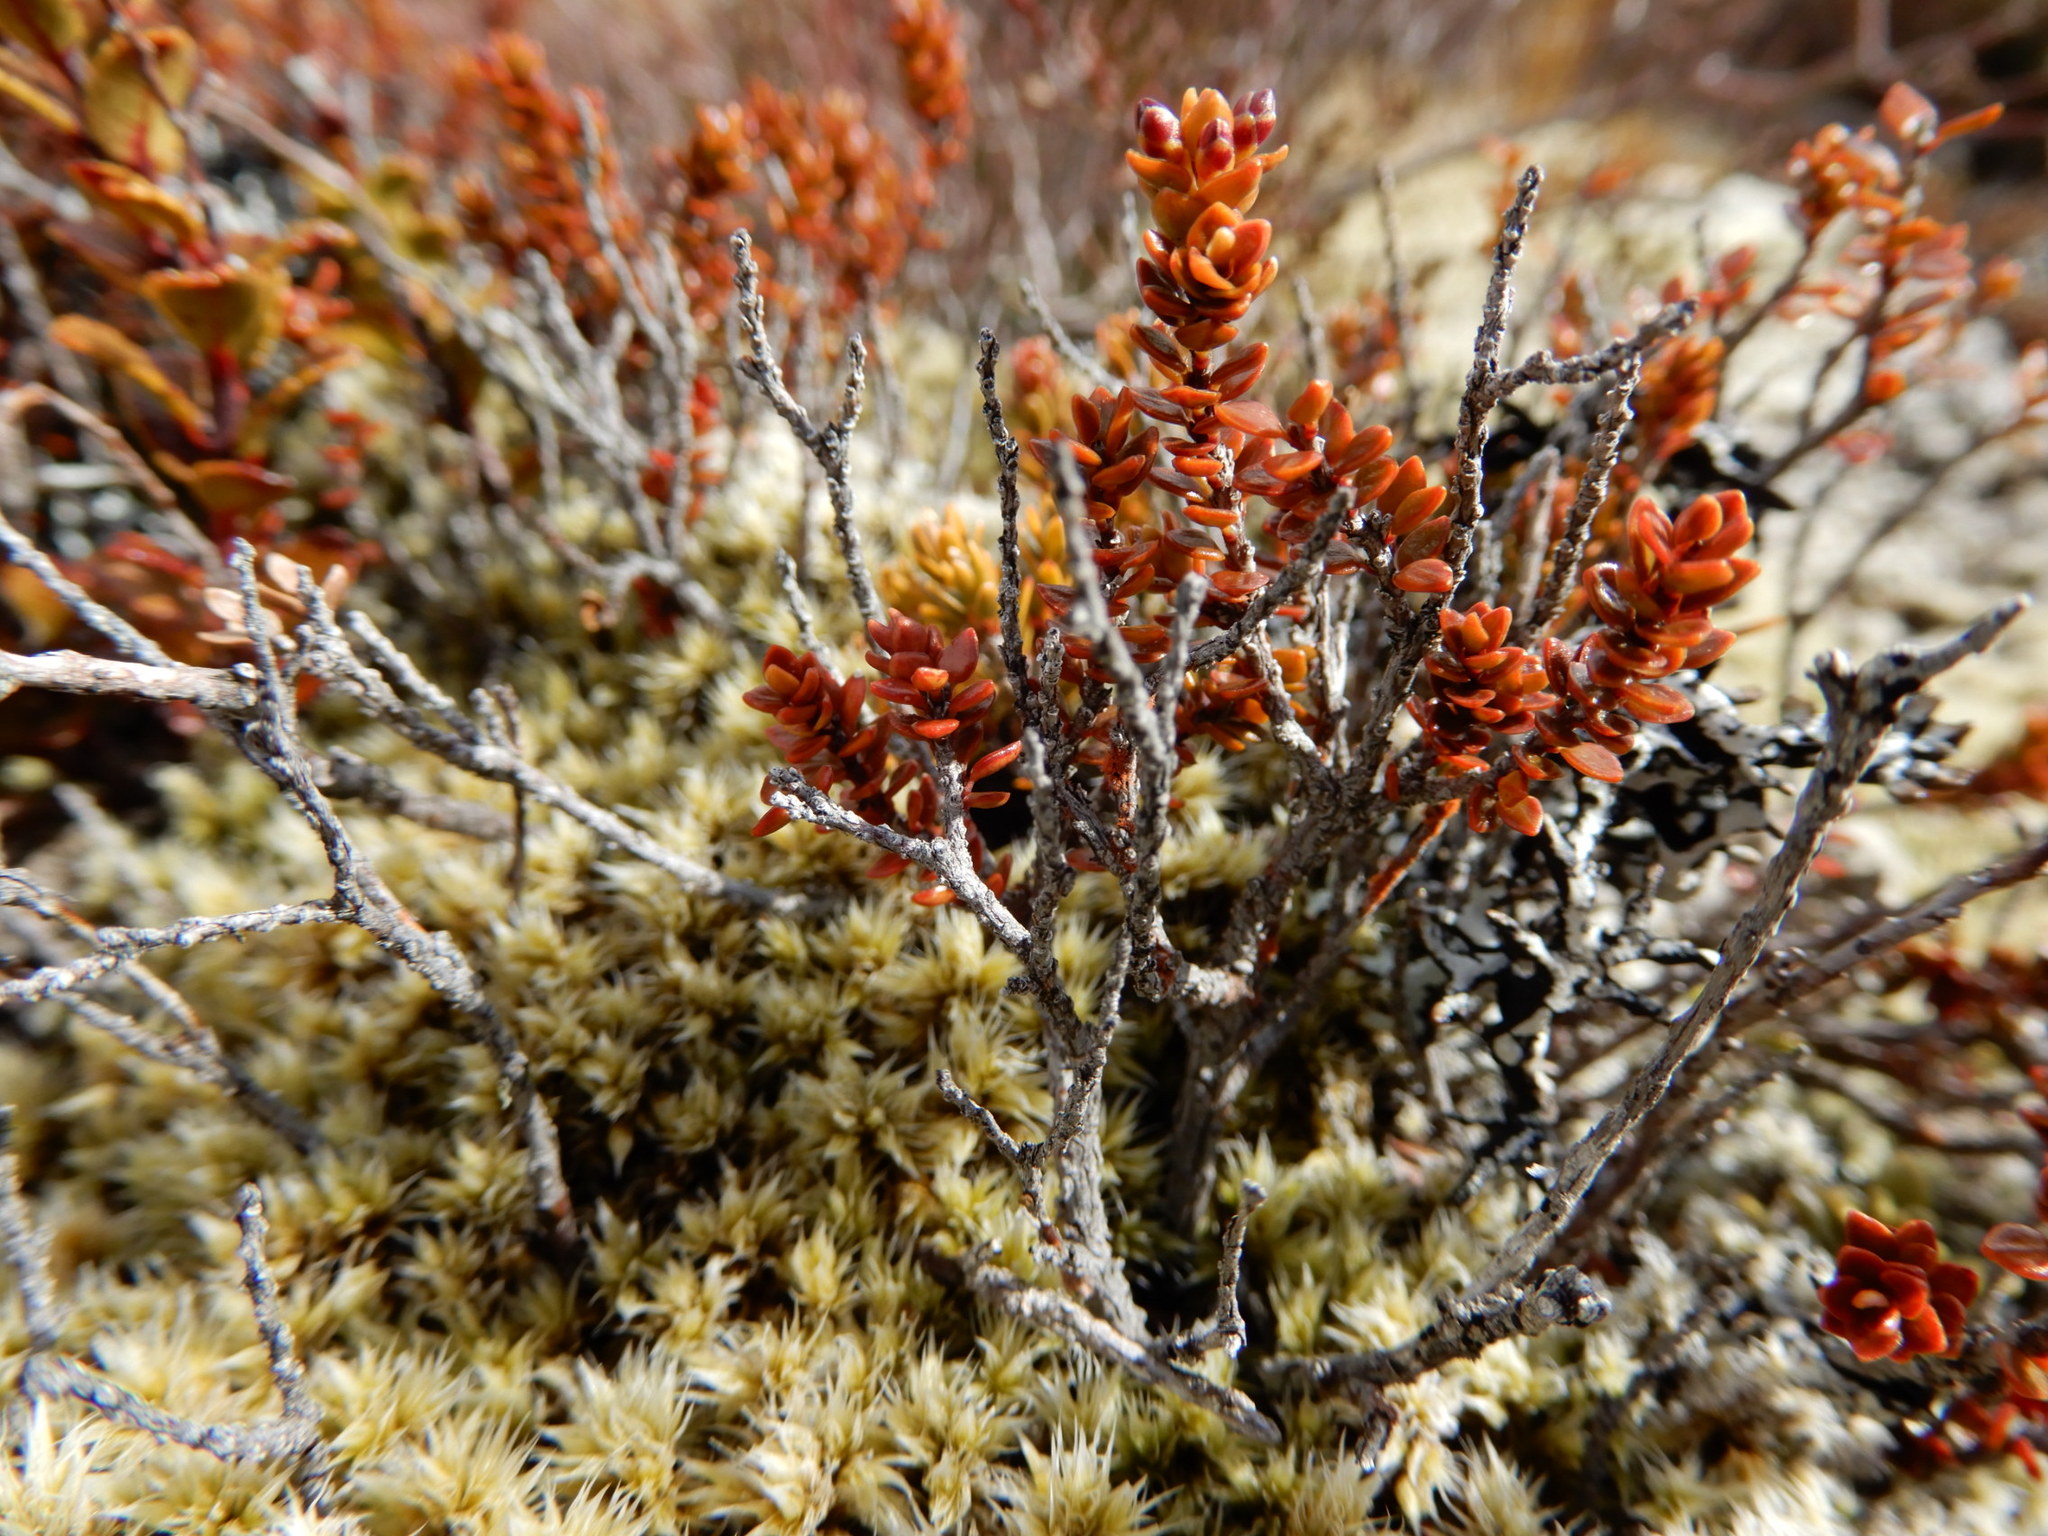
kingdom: Plantae
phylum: Tracheophyta
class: Magnoliopsida
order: Ericales
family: Ericaceae
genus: Epacris
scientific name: Epacris alpina
